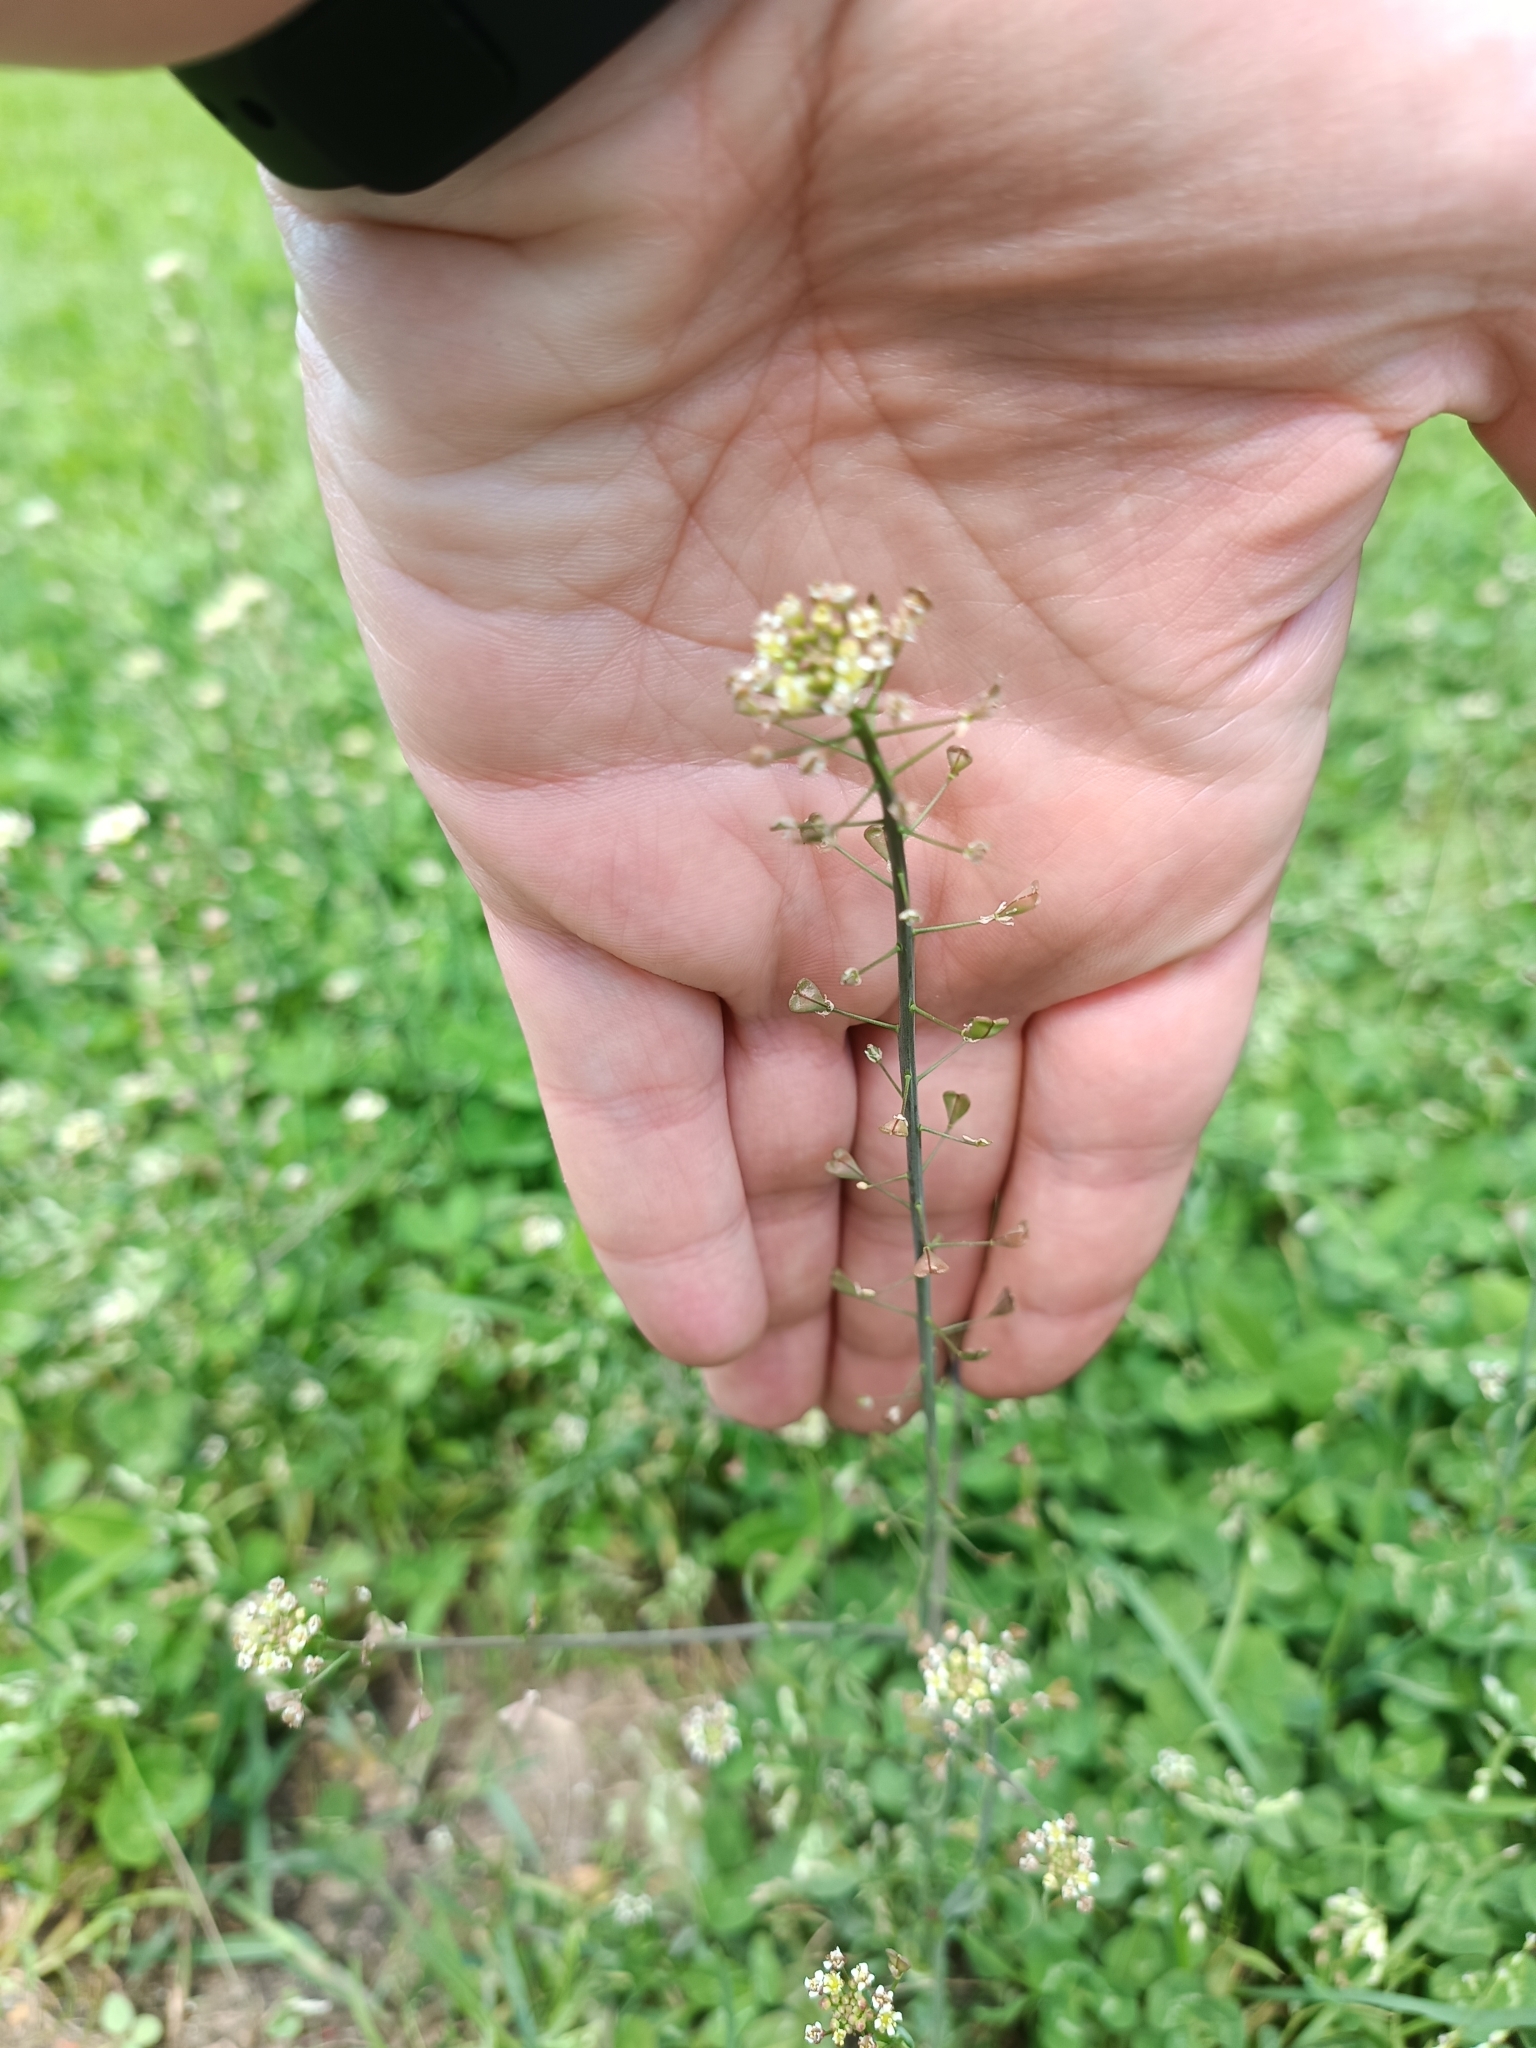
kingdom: Plantae
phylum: Tracheophyta
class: Magnoliopsida
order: Brassicales
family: Brassicaceae
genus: Capsella
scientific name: Capsella bursa-pastoris
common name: Shepherd's purse
